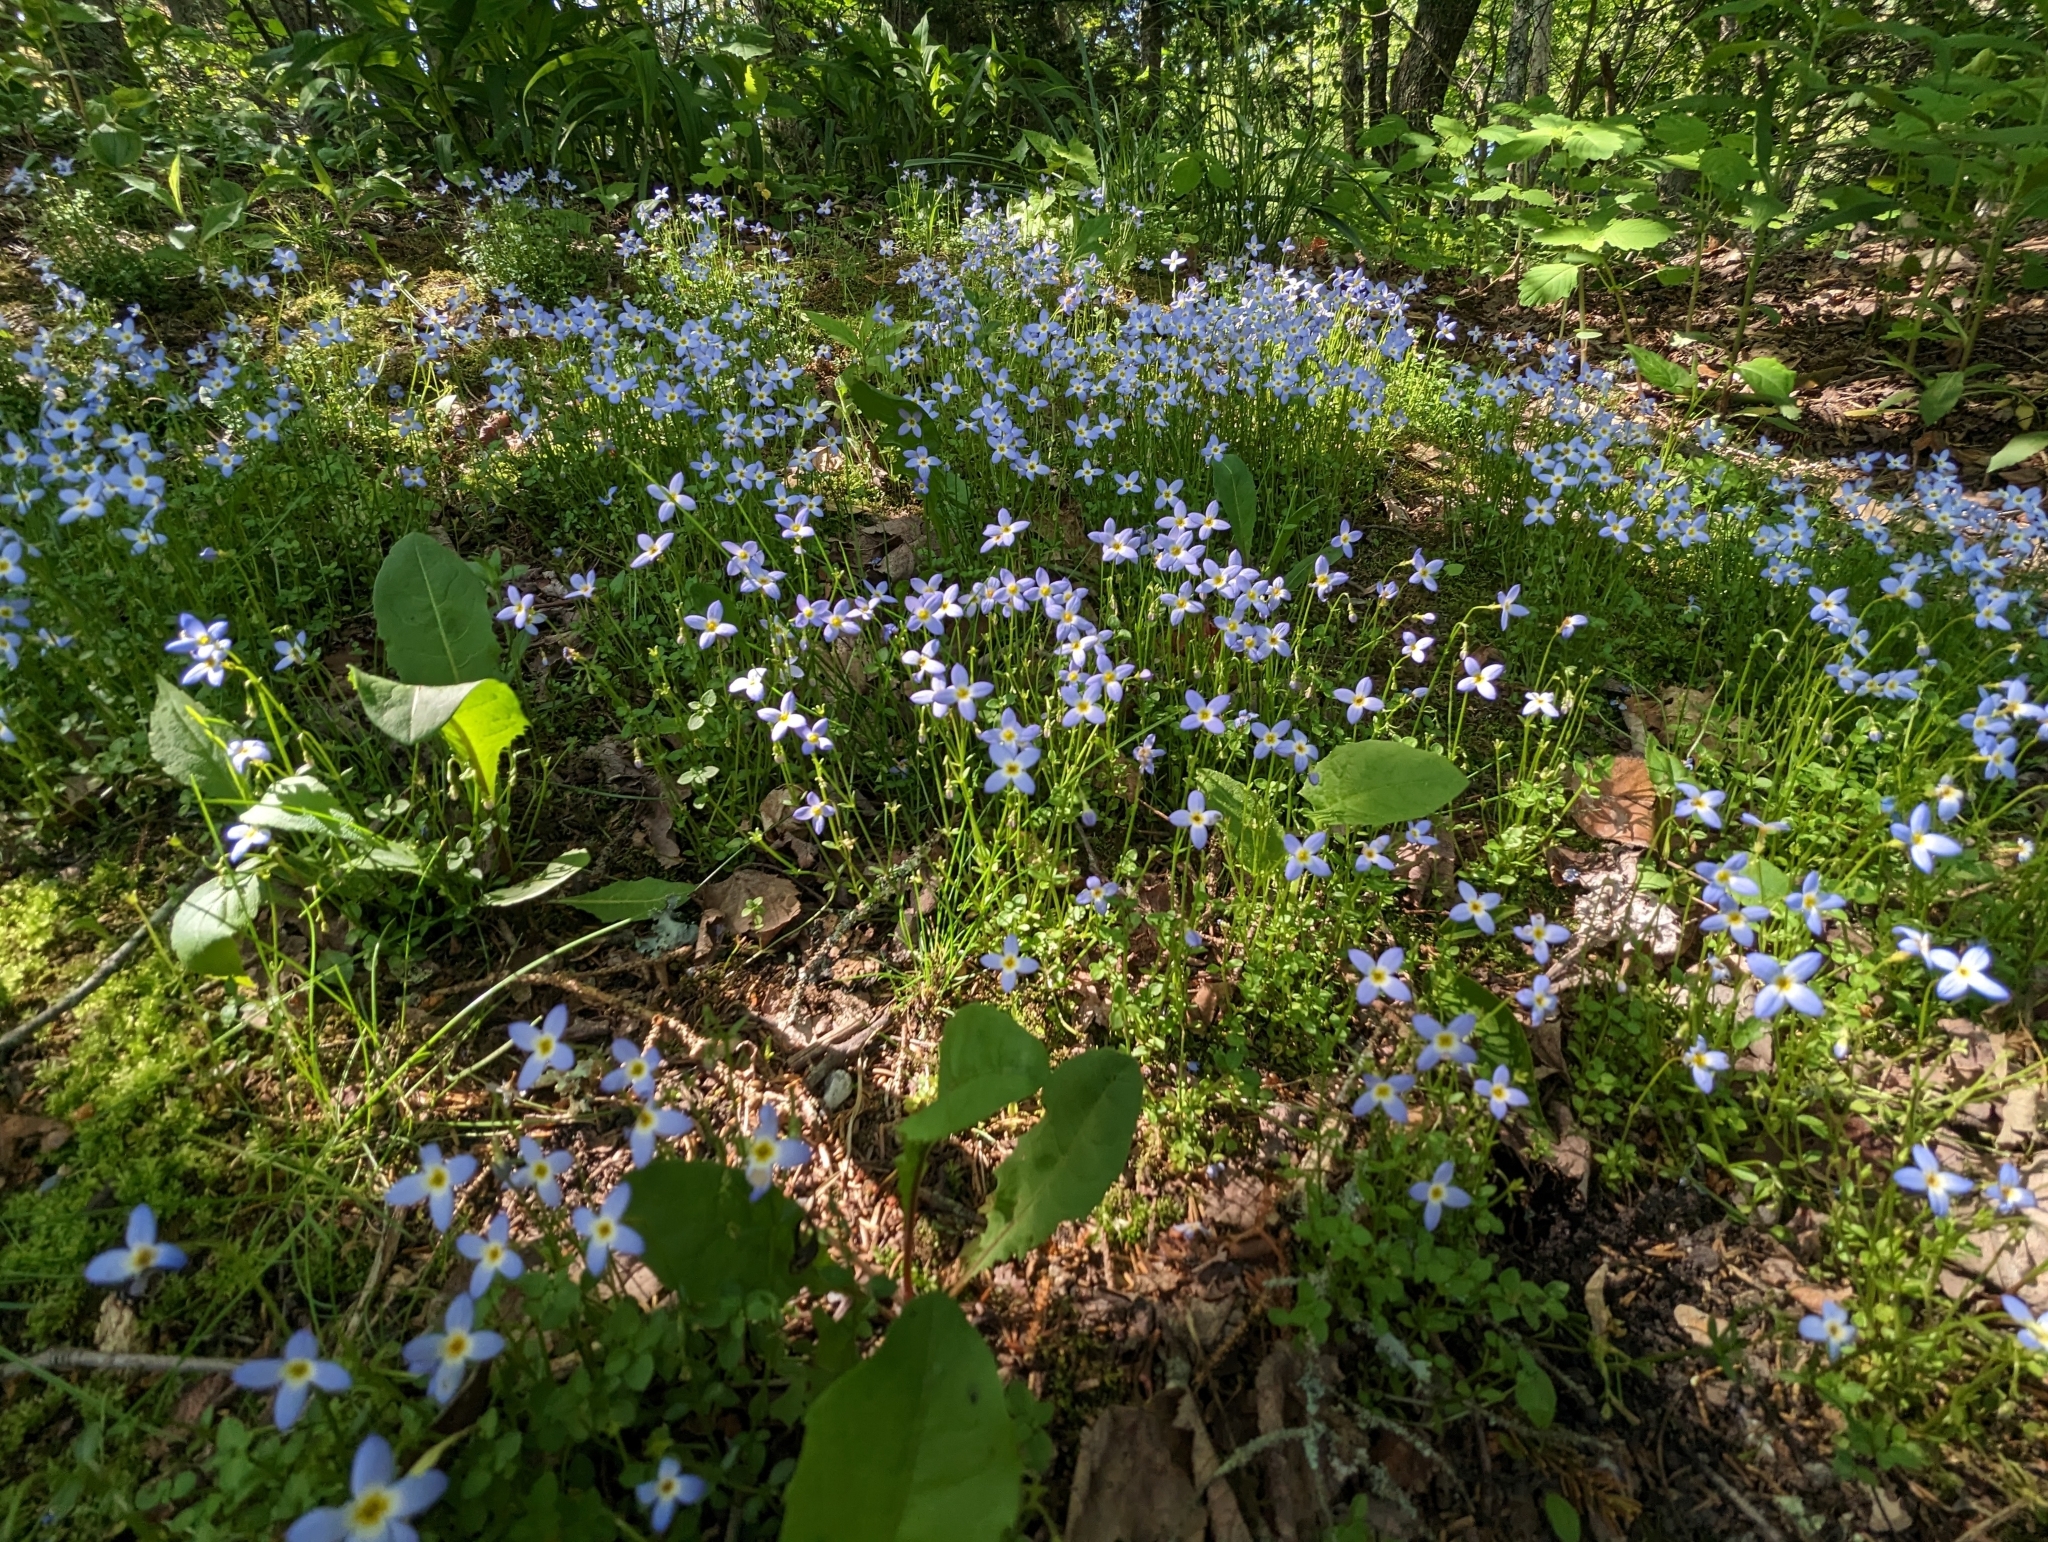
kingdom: Plantae
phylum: Tracheophyta
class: Magnoliopsida
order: Gentianales
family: Rubiaceae
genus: Houstonia
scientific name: Houstonia serpyllifolia
